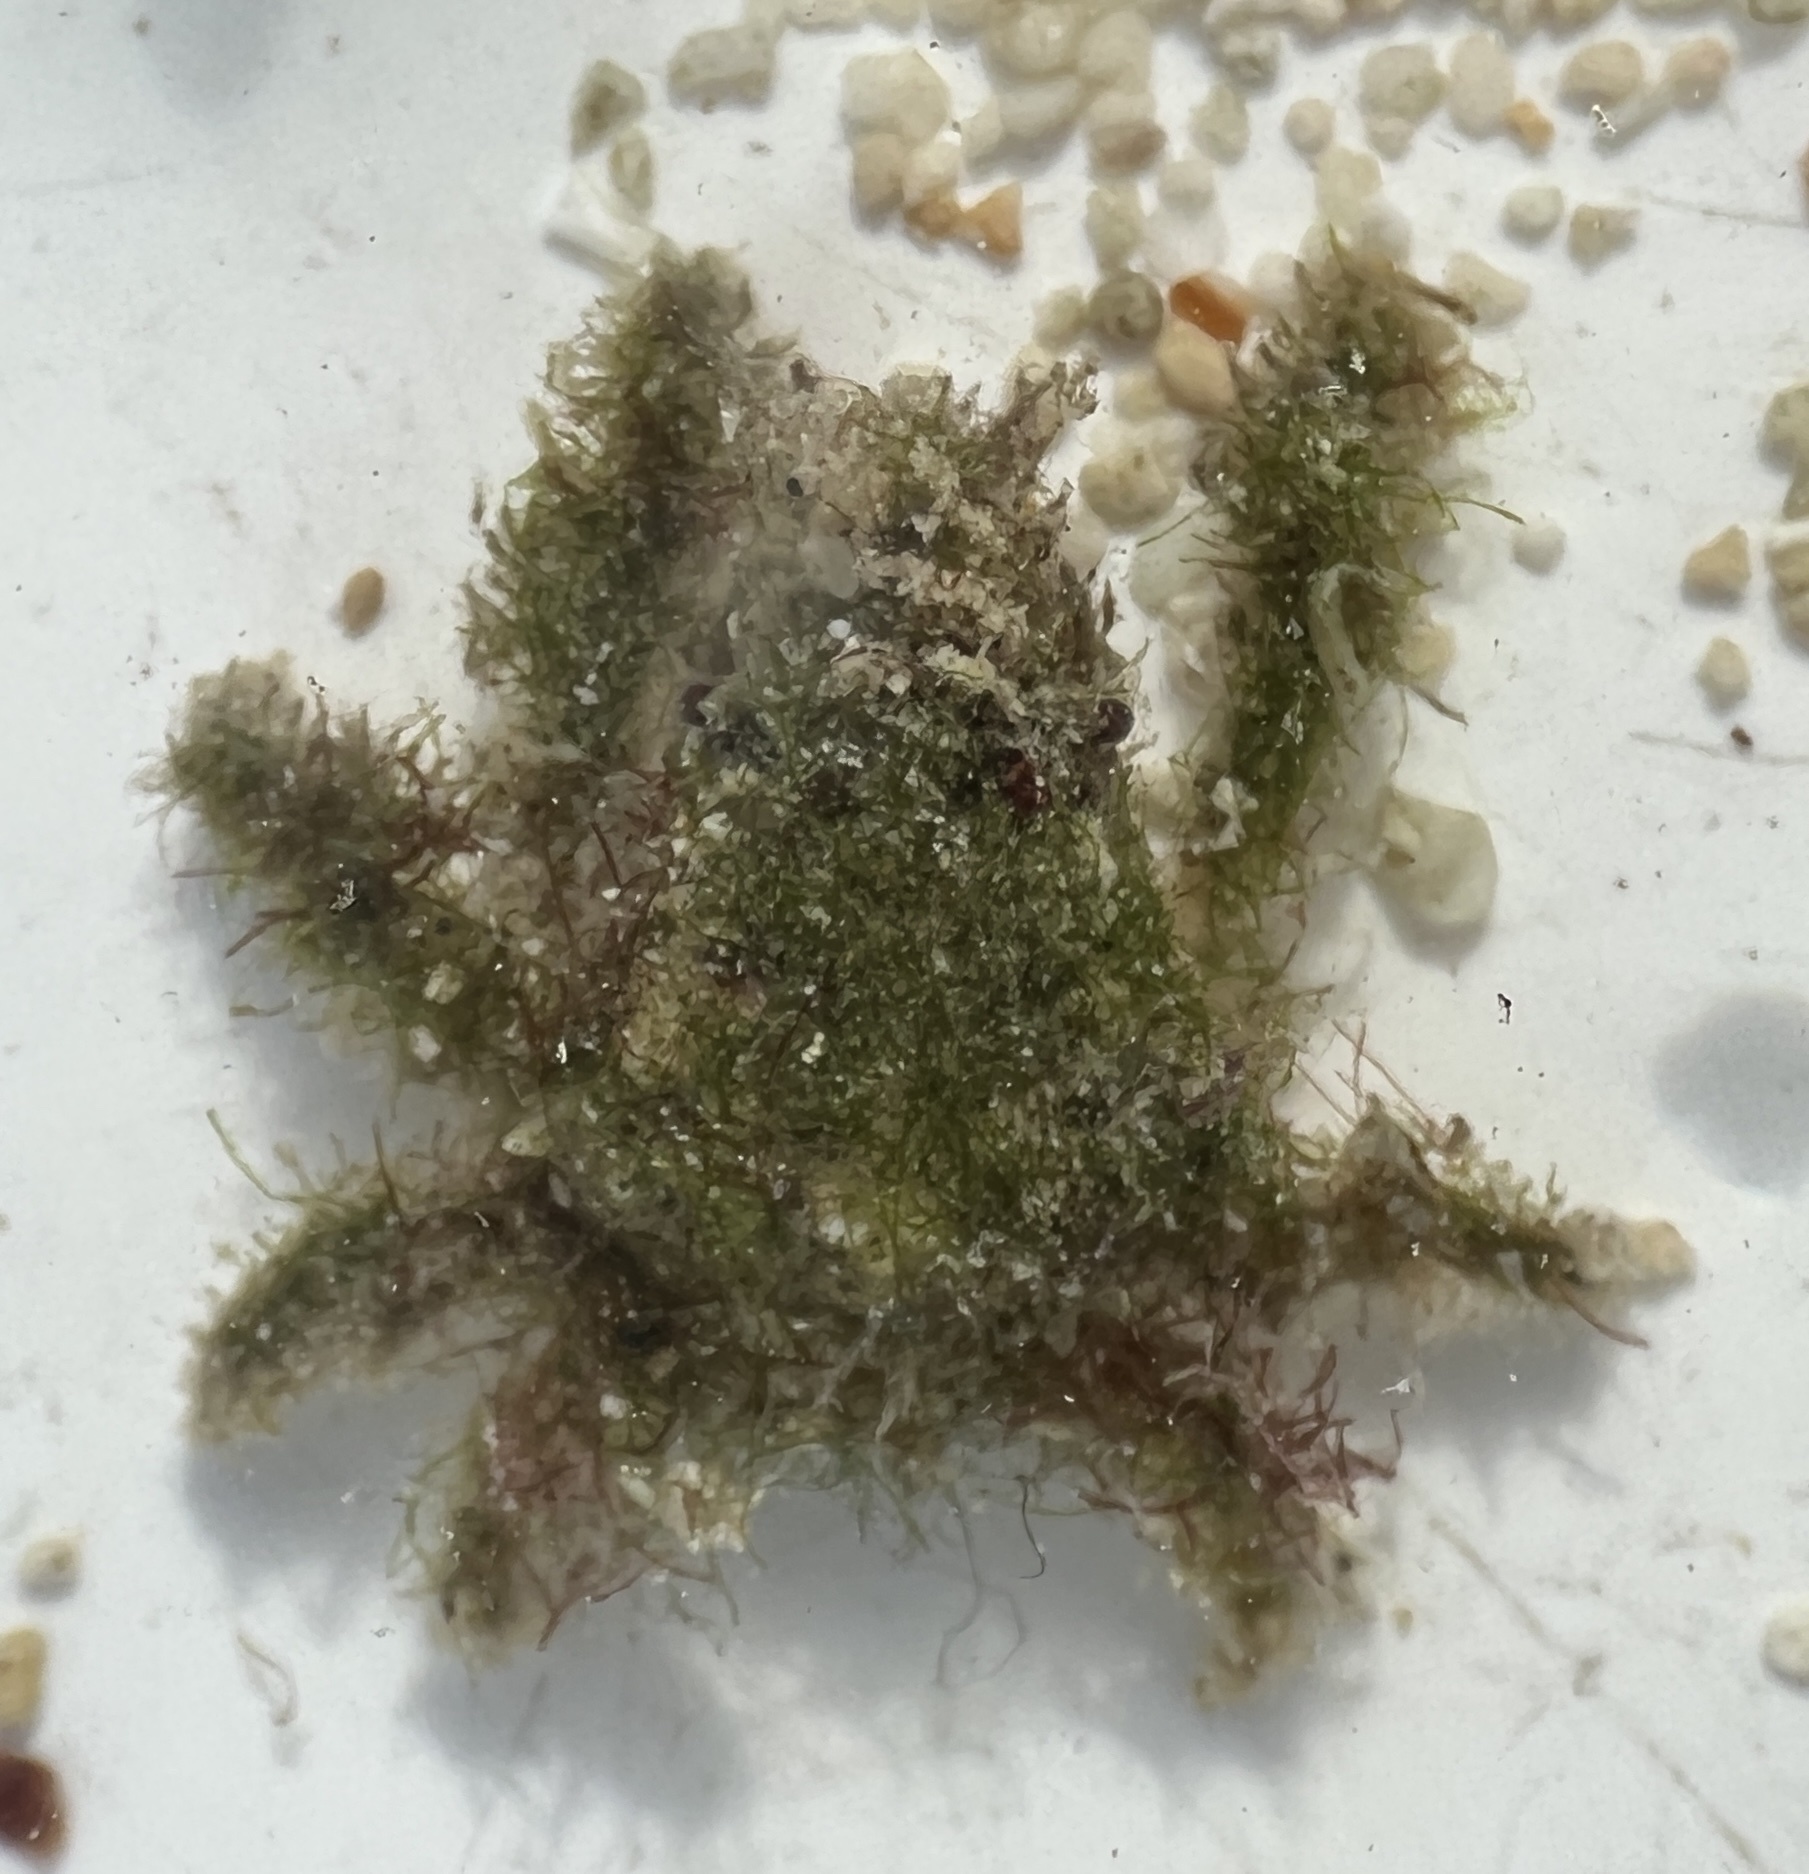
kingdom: Animalia
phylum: Arthropoda
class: Malacostraca
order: Decapoda
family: Mithracidae
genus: Omalacantha
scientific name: Omalacantha bicornuta
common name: Two-horned spider crab
